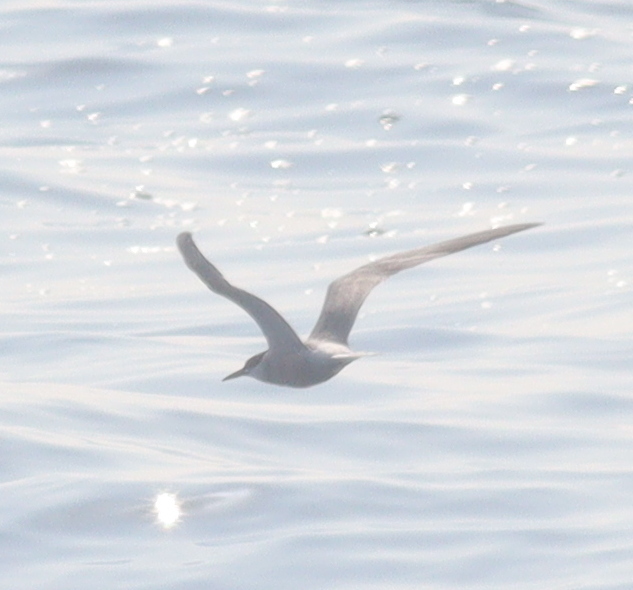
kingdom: Animalia
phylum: Chordata
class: Aves
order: Charadriiformes
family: Laridae
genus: Thalasseus
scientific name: Thalasseus sandvicensis
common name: Sandwich tern
